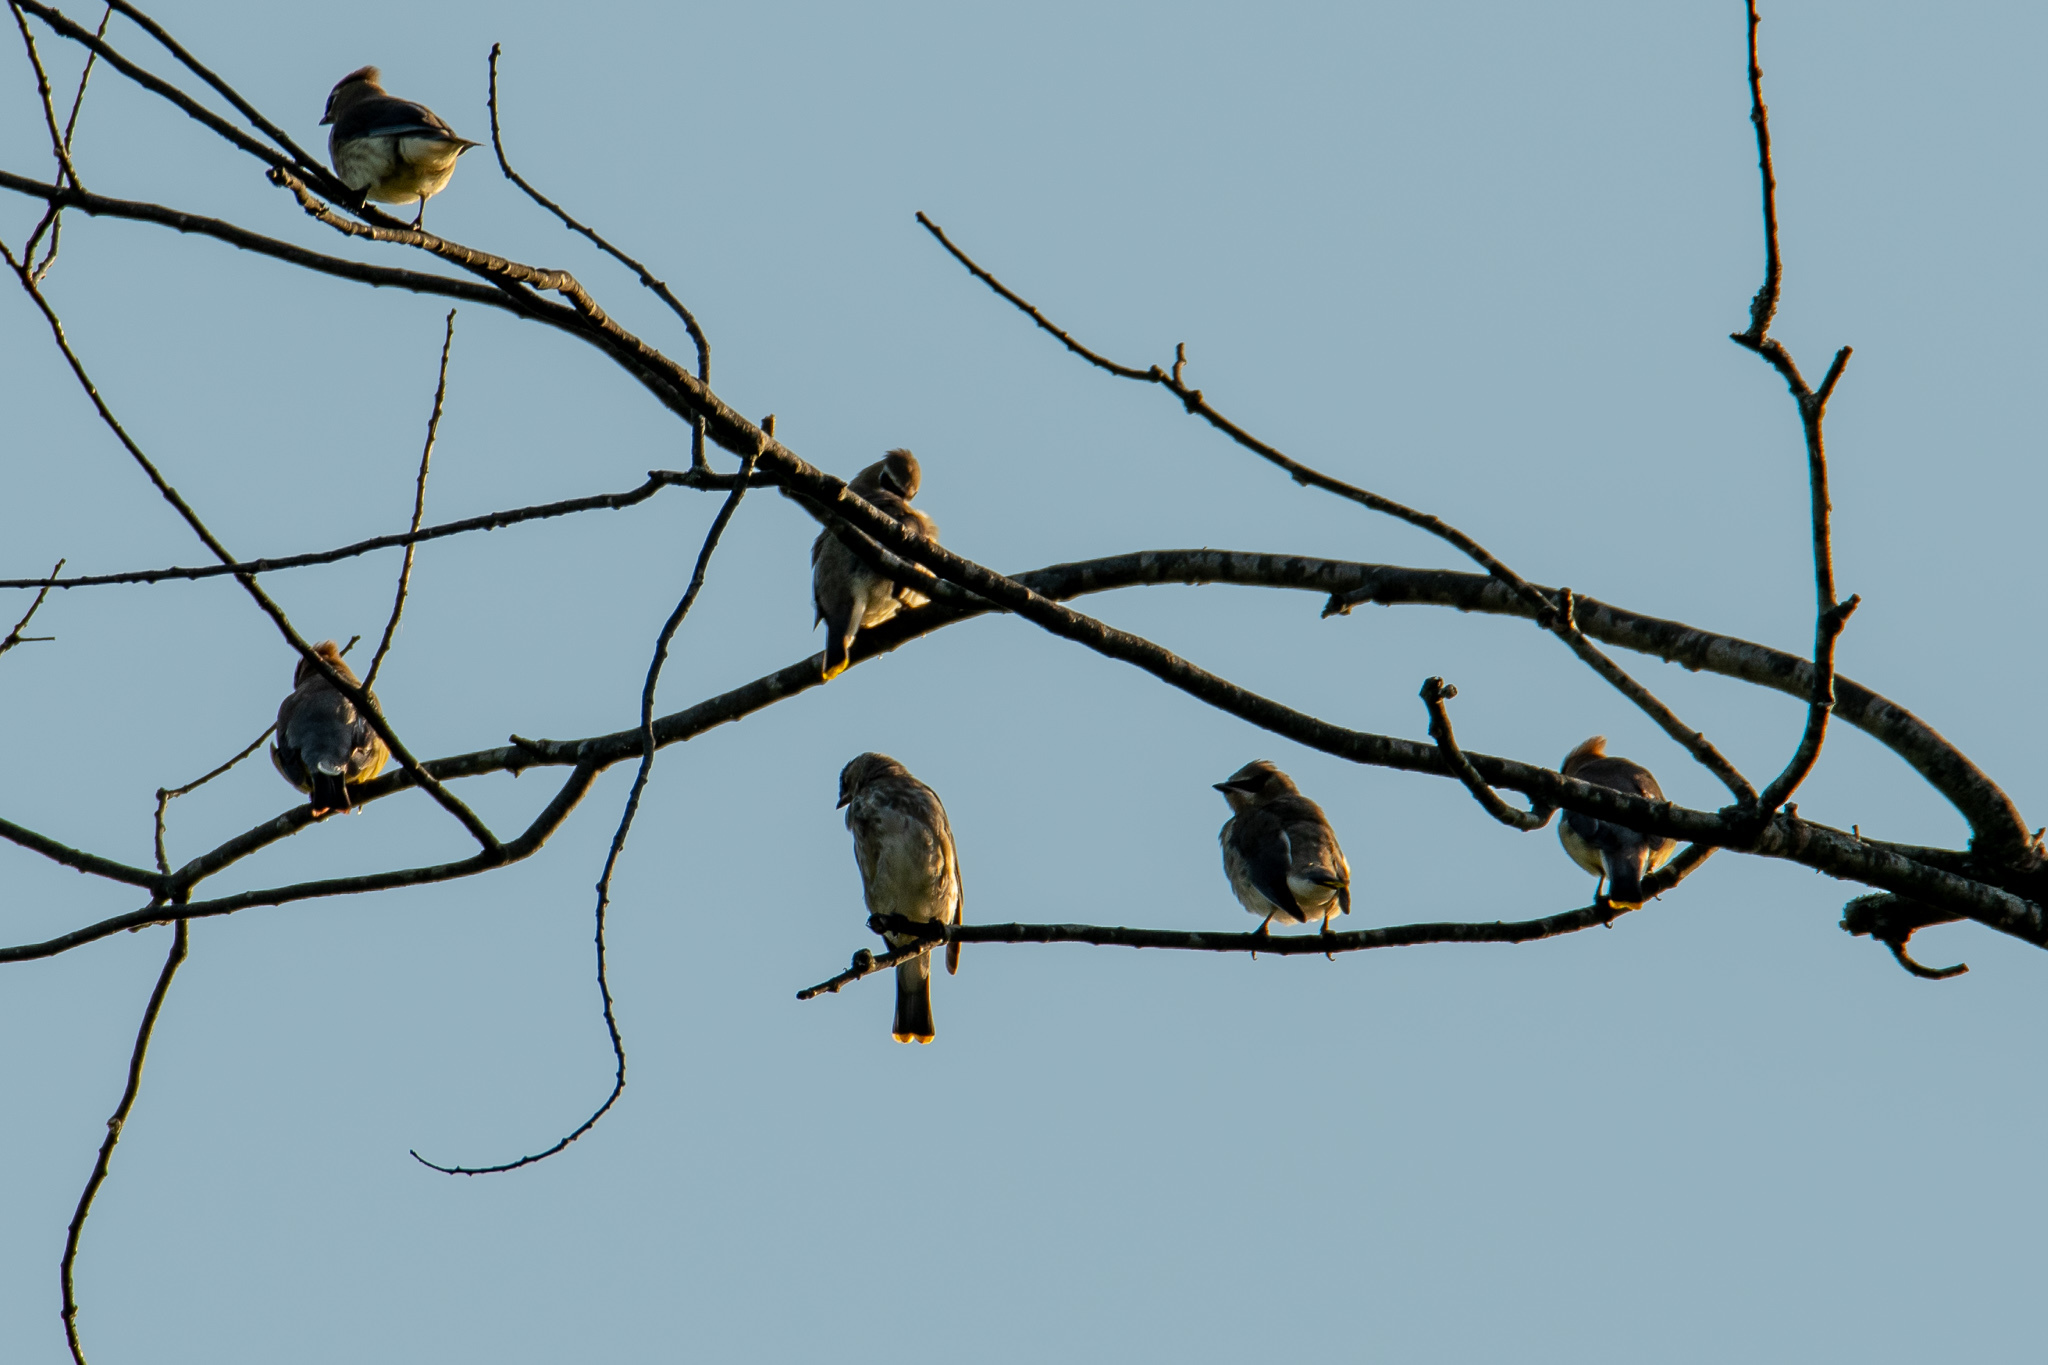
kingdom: Animalia
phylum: Chordata
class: Aves
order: Passeriformes
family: Bombycillidae
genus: Bombycilla
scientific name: Bombycilla cedrorum
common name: Cedar waxwing
